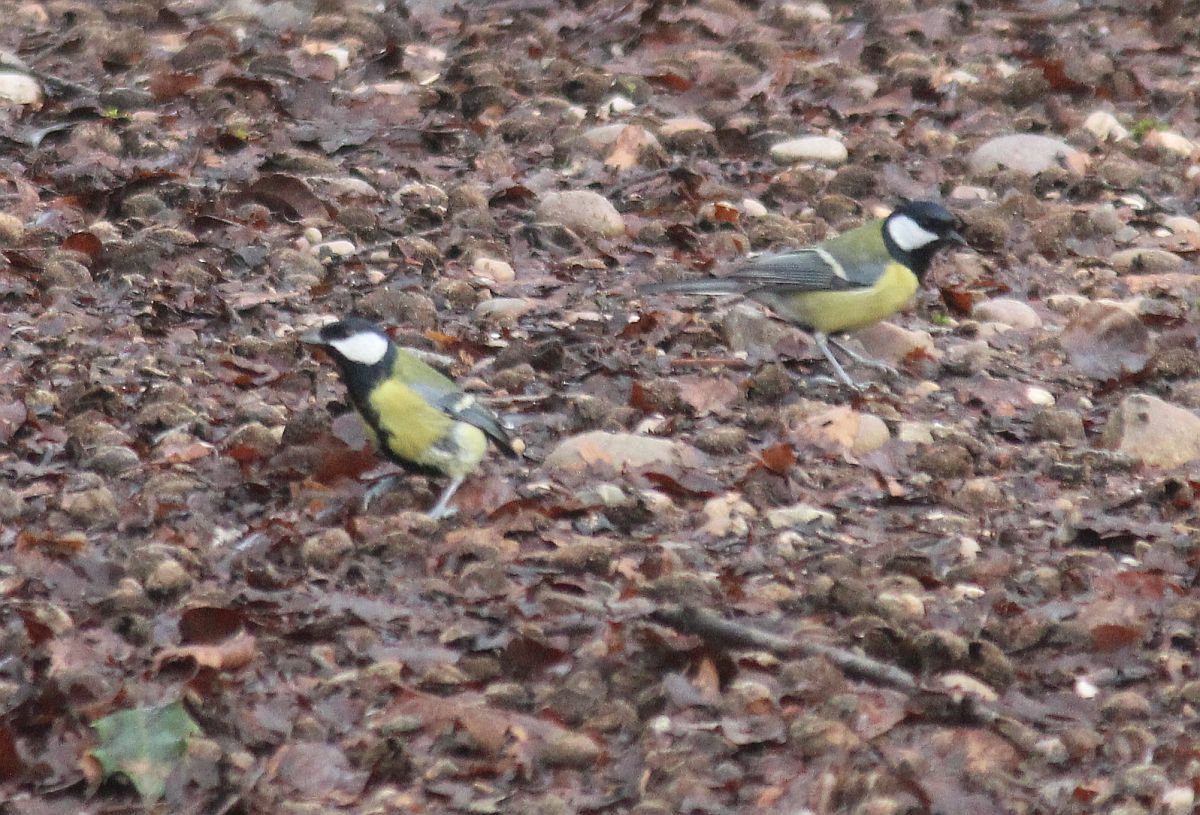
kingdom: Animalia
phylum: Chordata
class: Aves
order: Passeriformes
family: Paridae
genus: Parus
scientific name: Parus major
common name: Great tit
